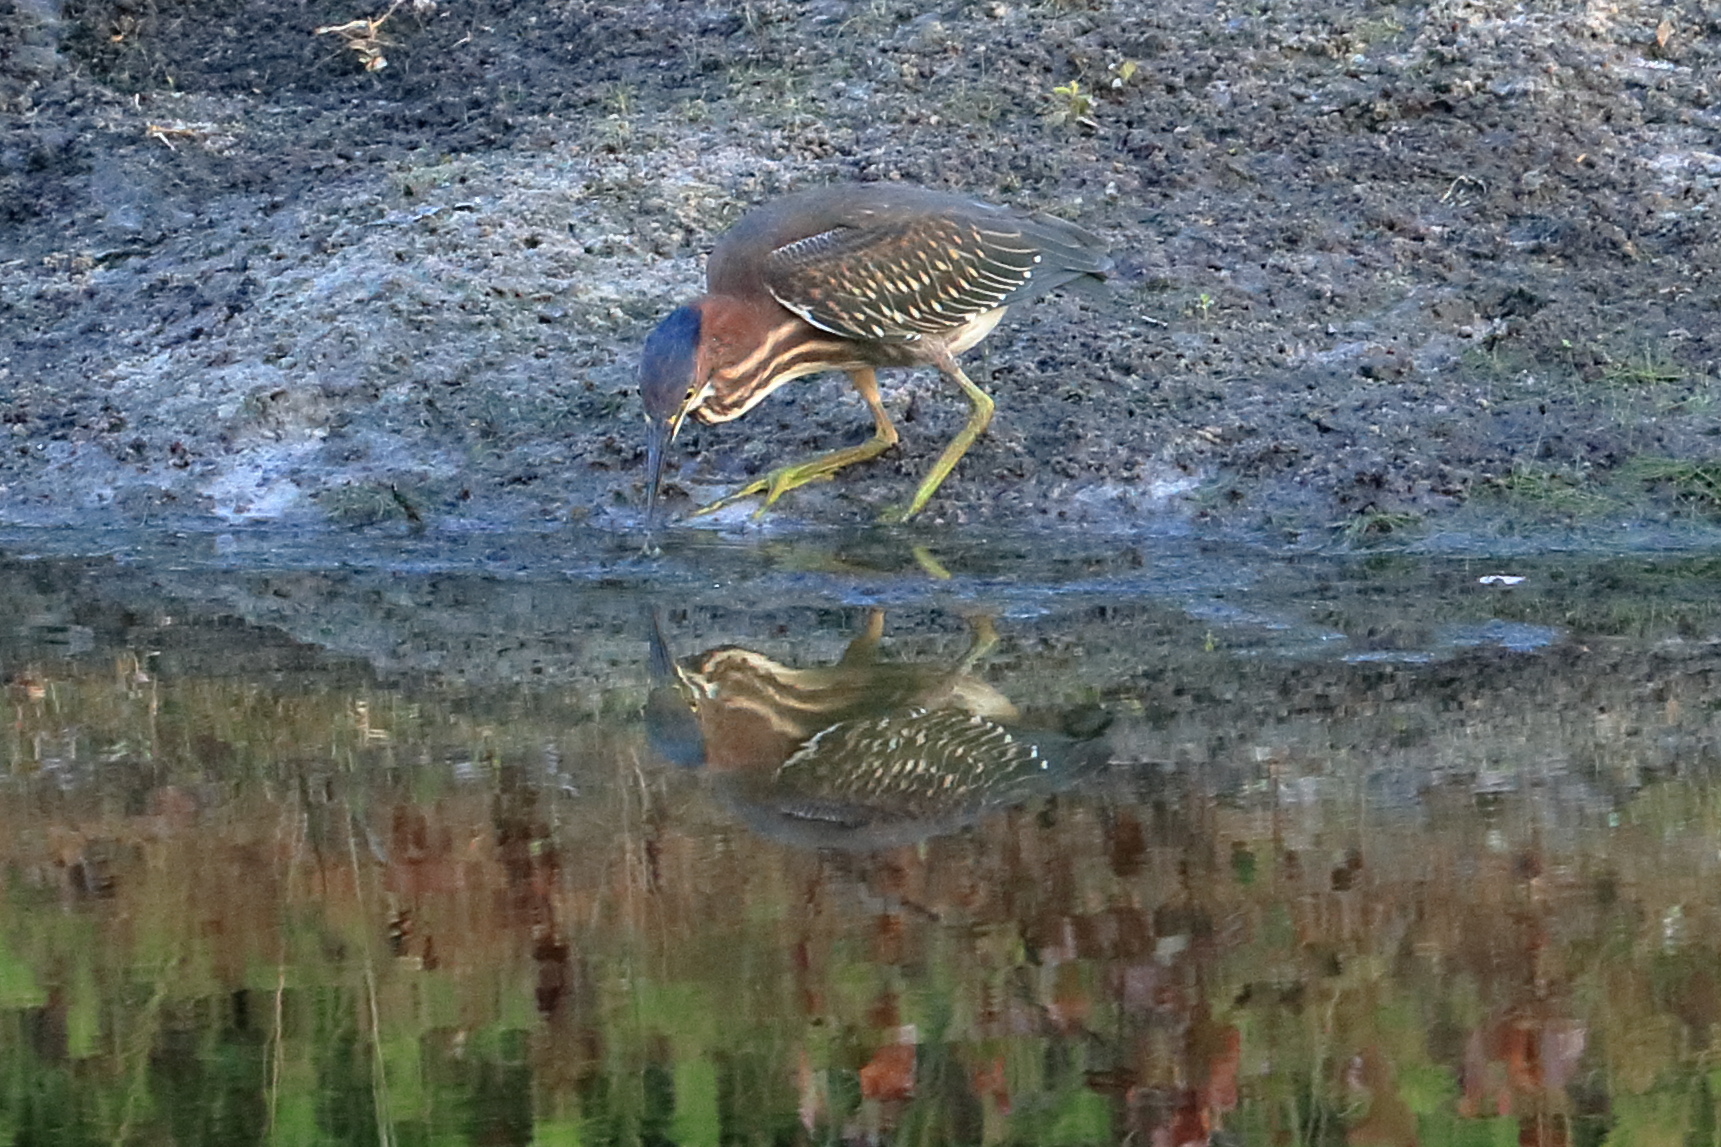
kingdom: Animalia
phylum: Chordata
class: Aves
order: Pelecaniformes
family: Ardeidae
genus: Butorides
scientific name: Butorides virescens
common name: Green heron
